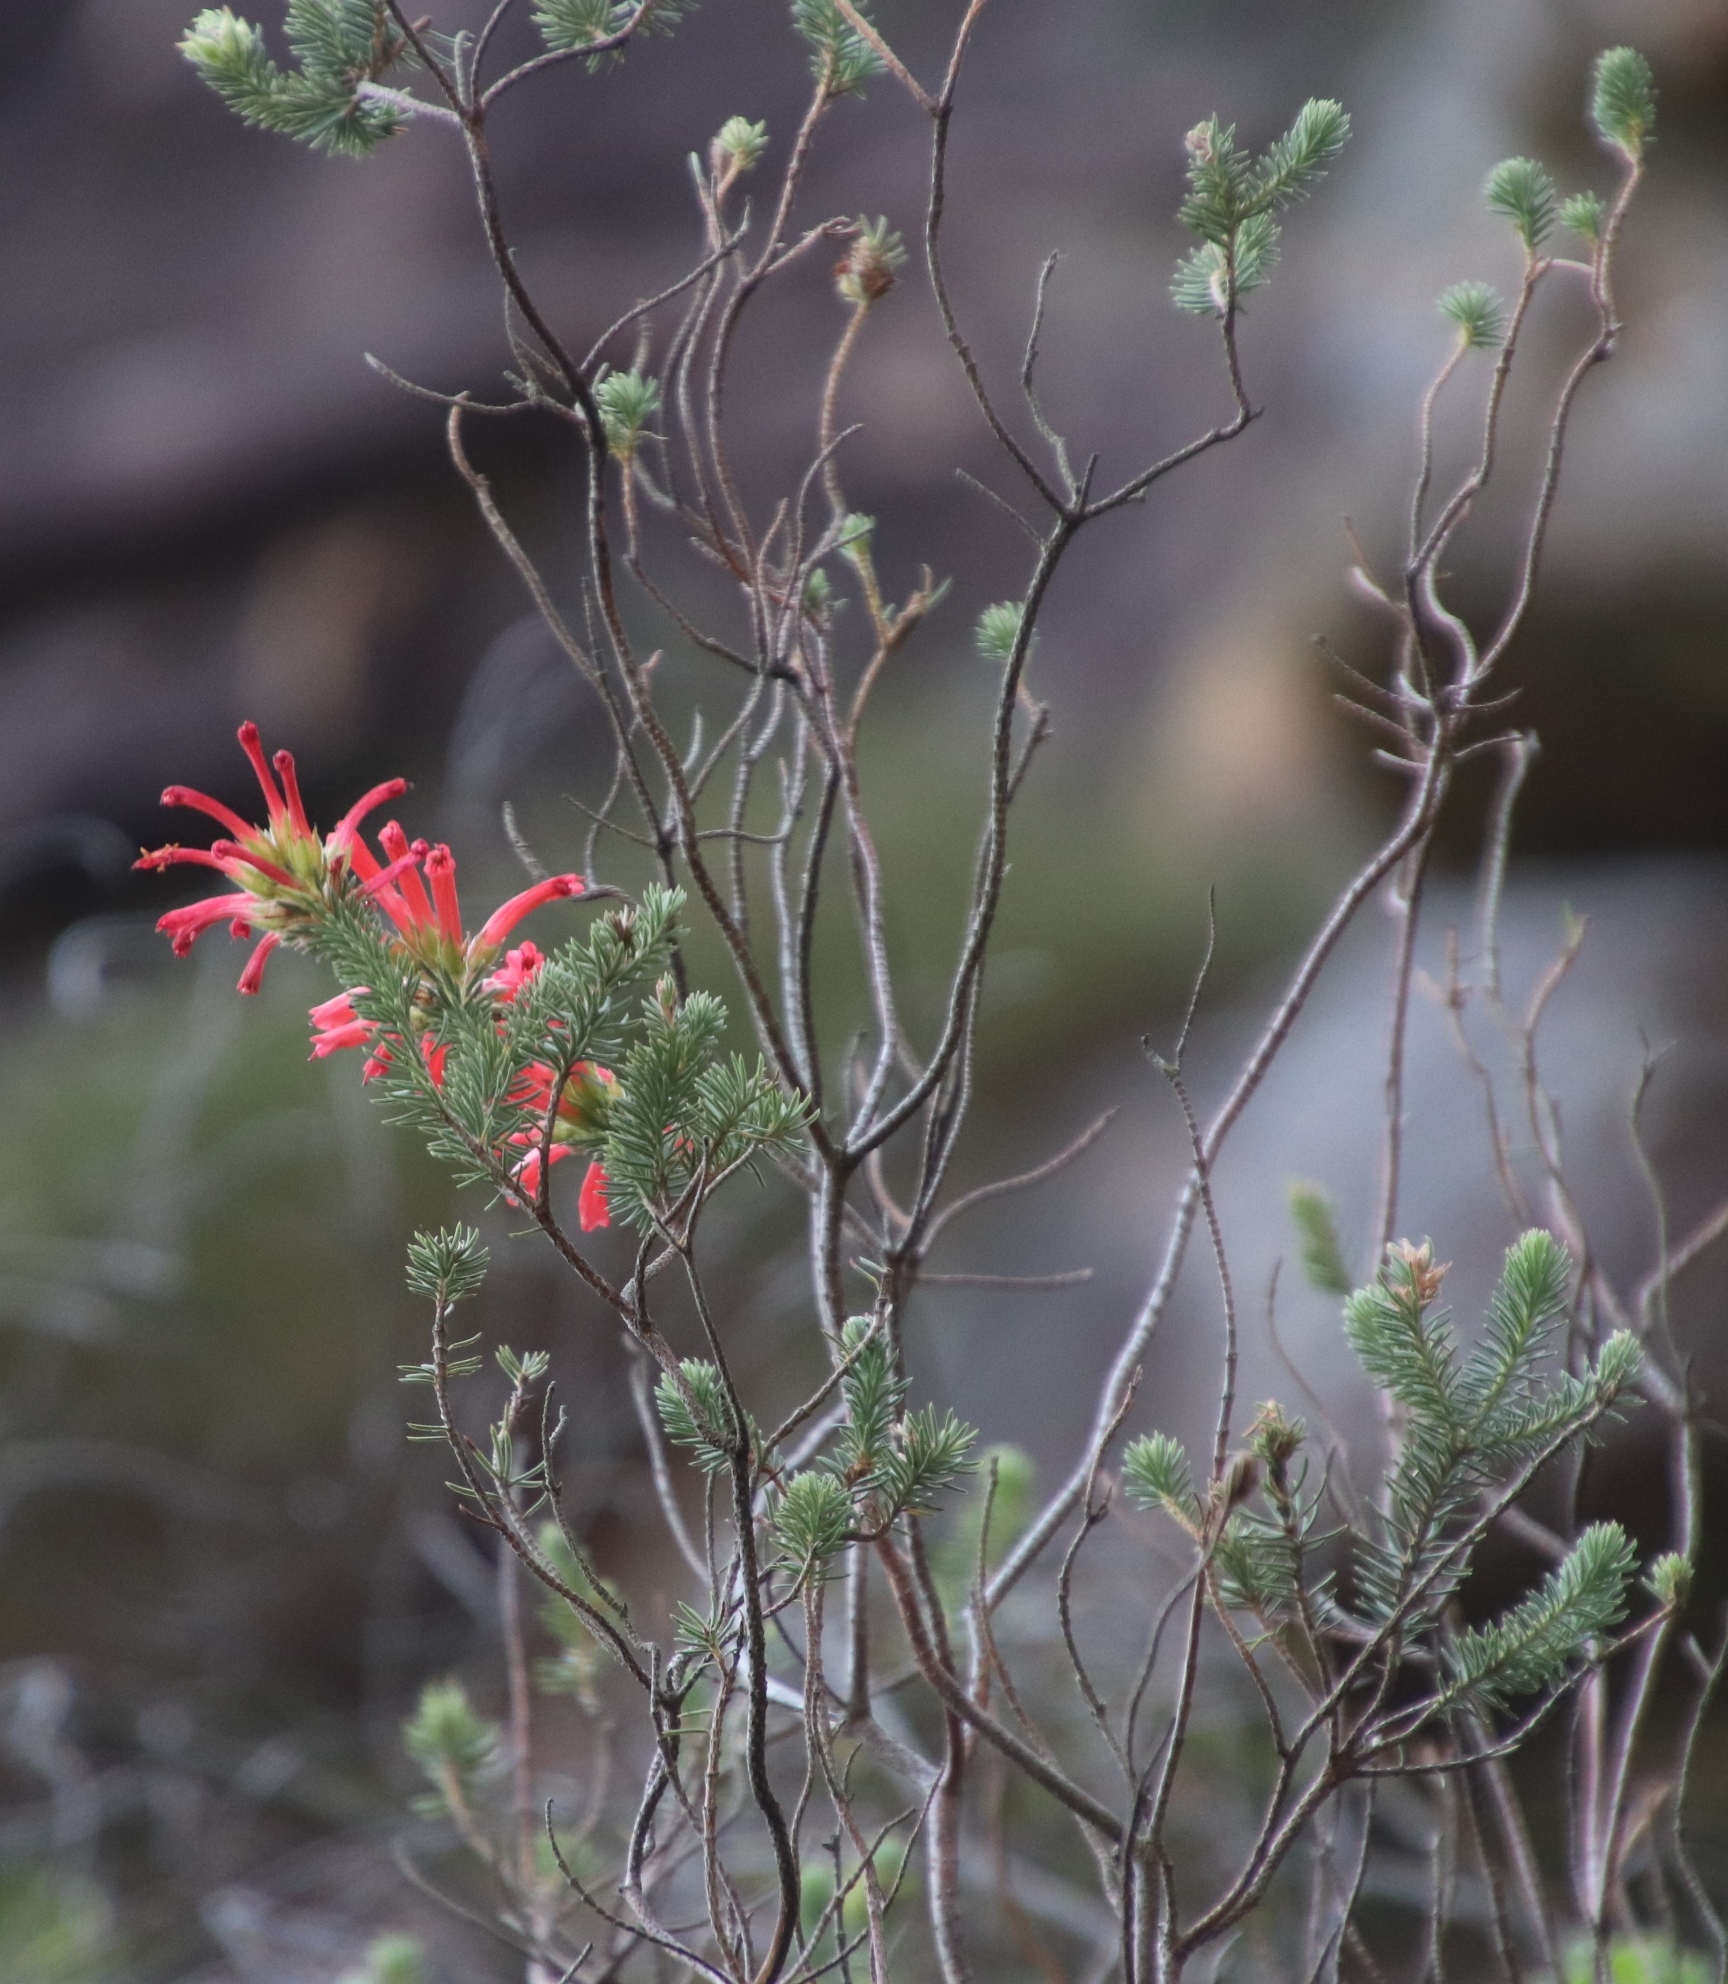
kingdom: Plantae
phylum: Tracheophyta
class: Magnoliopsida
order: Ericales
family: Ericaceae
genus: Erica
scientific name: Erica abietina
